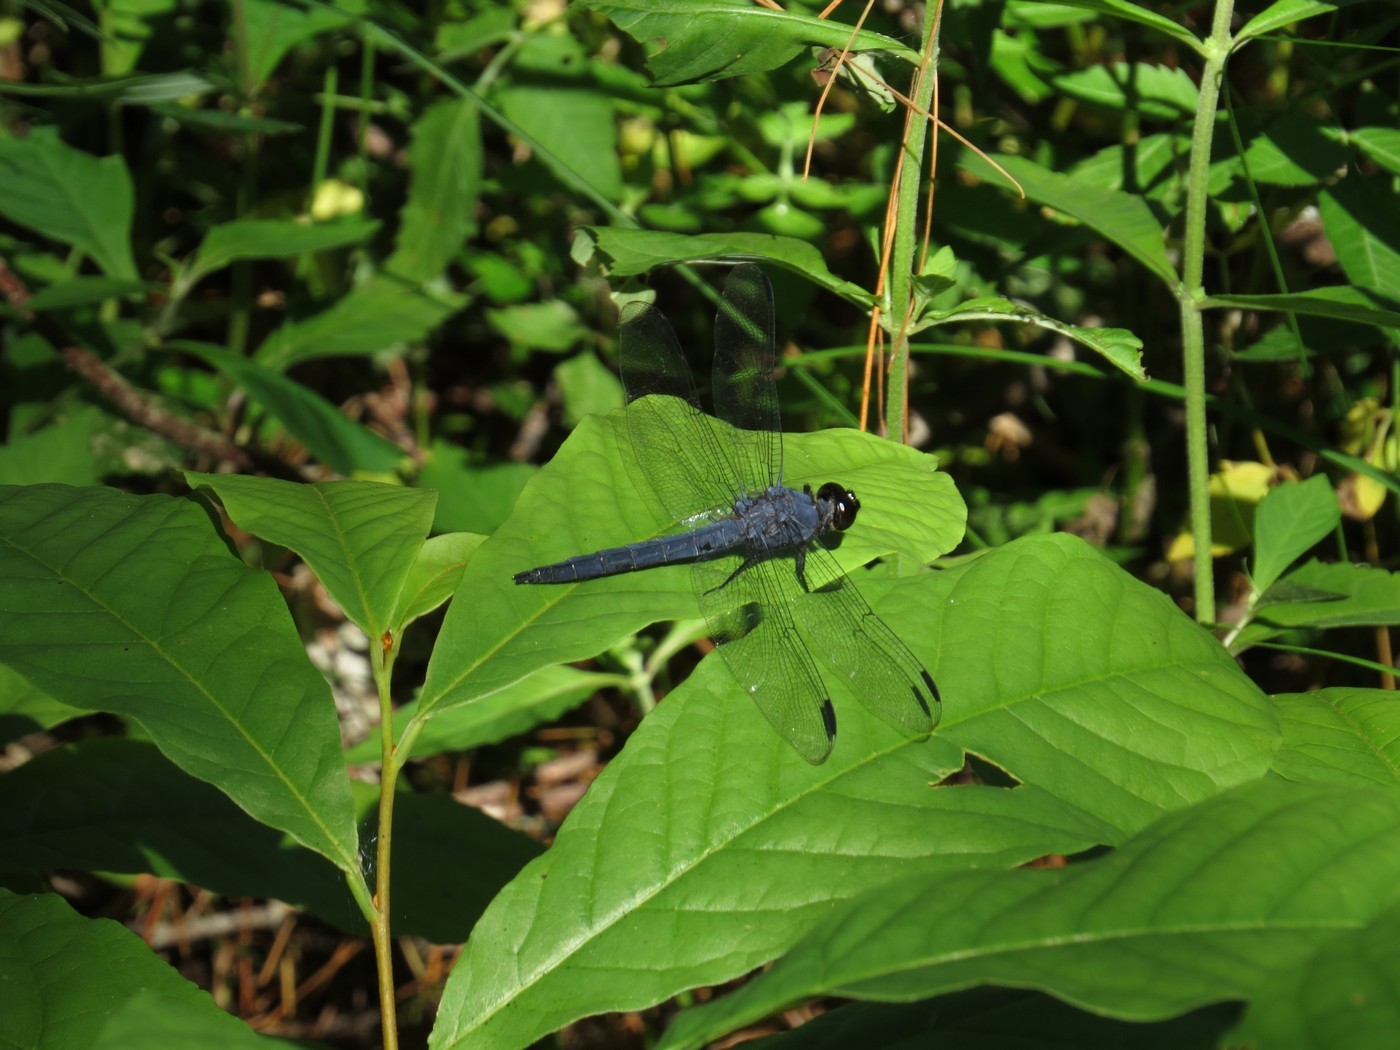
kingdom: Animalia
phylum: Arthropoda
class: Insecta
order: Odonata
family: Libellulidae
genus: Libellula
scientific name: Libellula incesta
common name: Slaty skimmer
